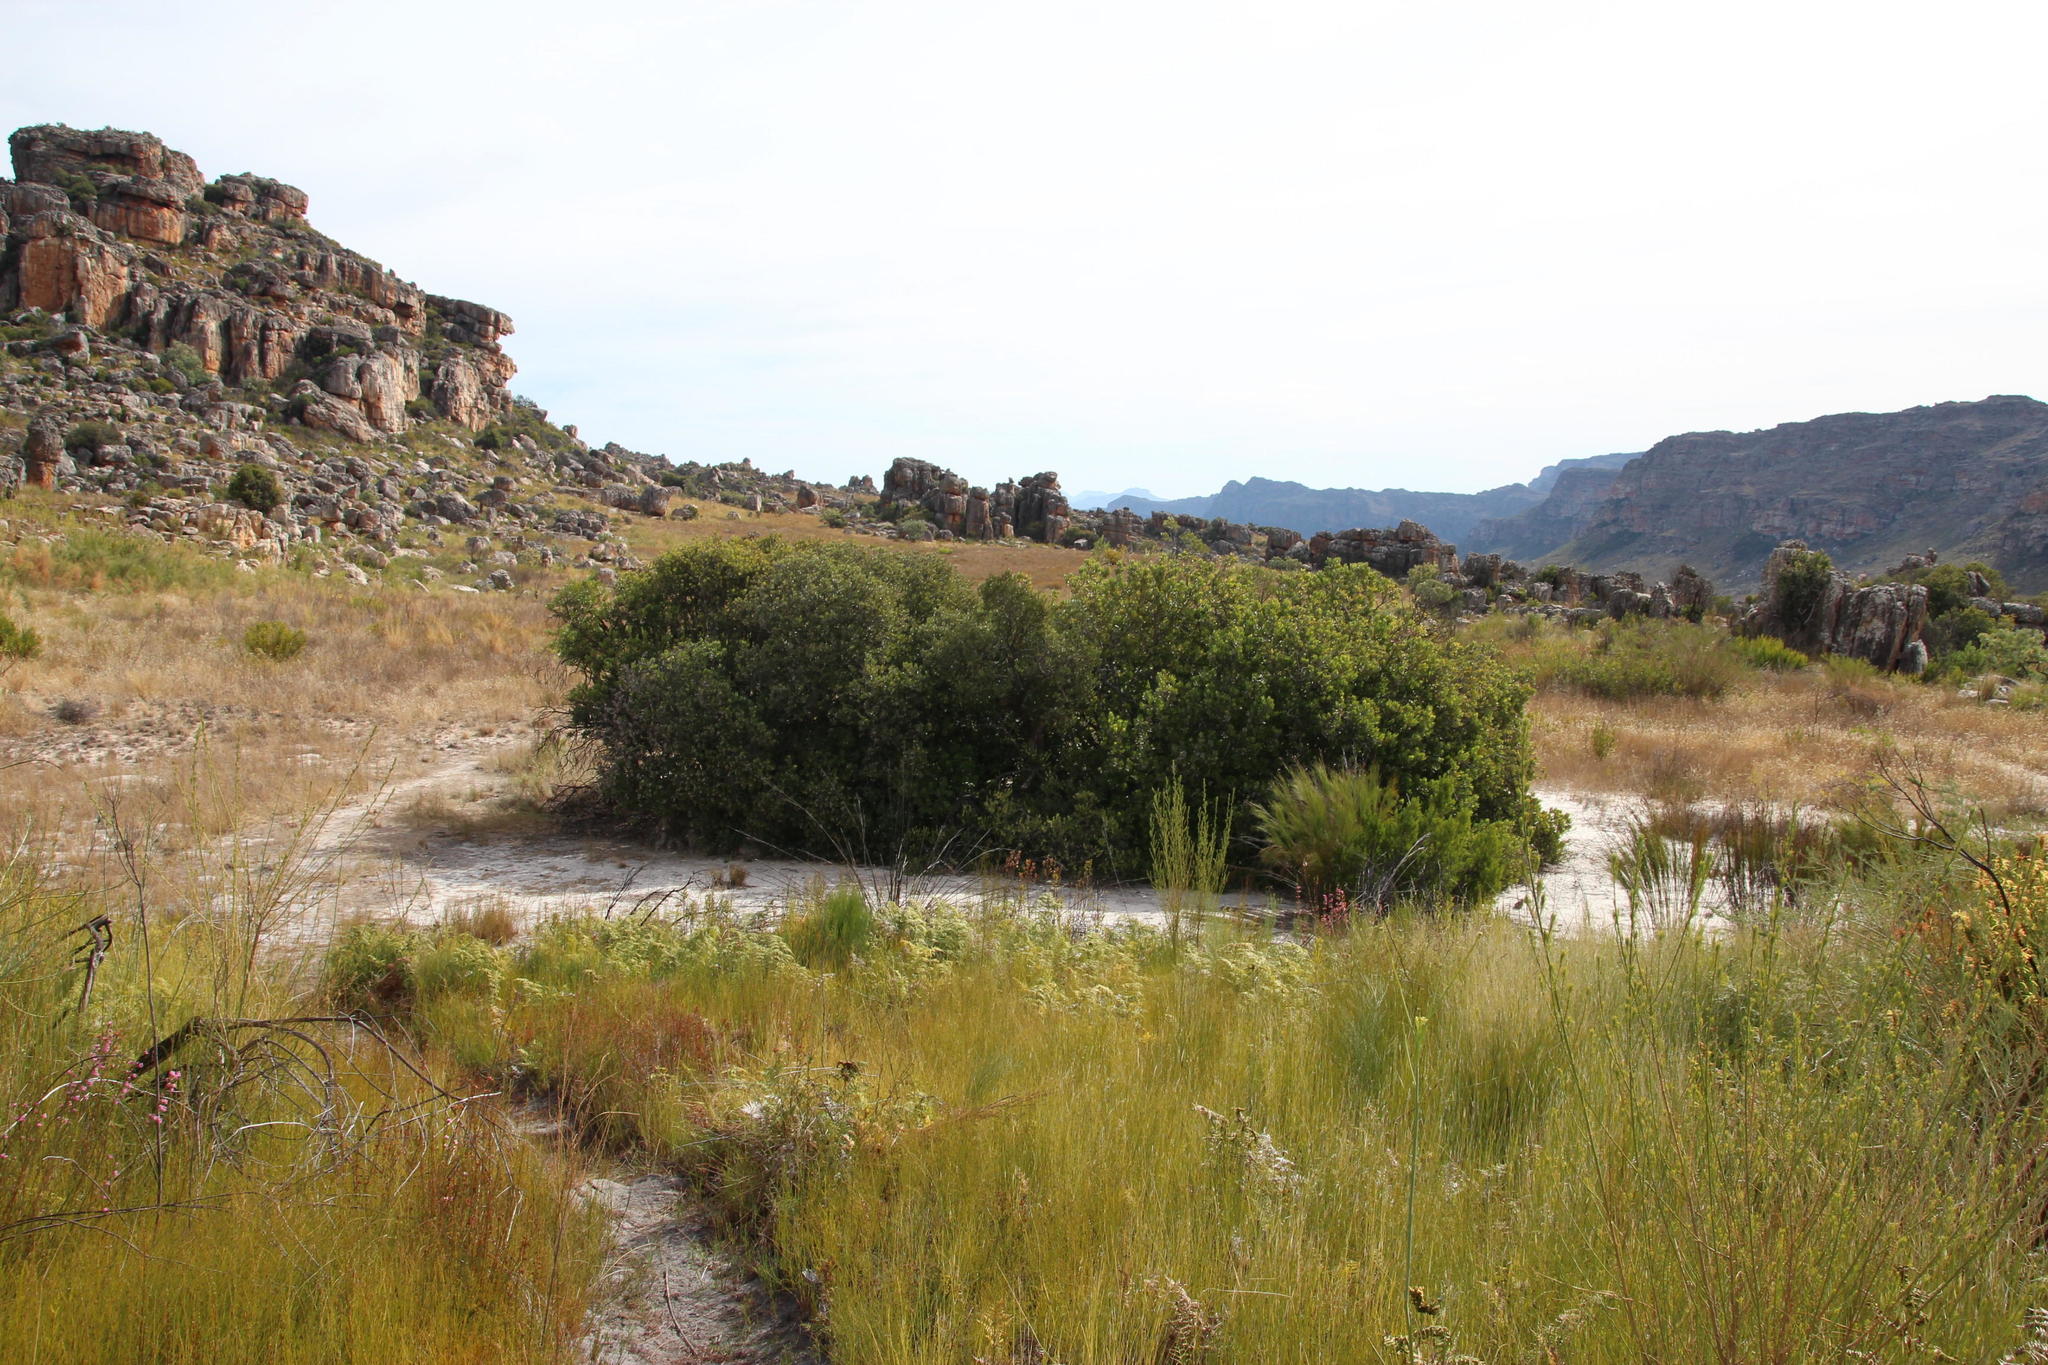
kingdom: Plantae
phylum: Tracheophyta
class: Magnoliopsida
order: Sapindales
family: Anacardiaceae
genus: Heeria
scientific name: Heeria argentea
